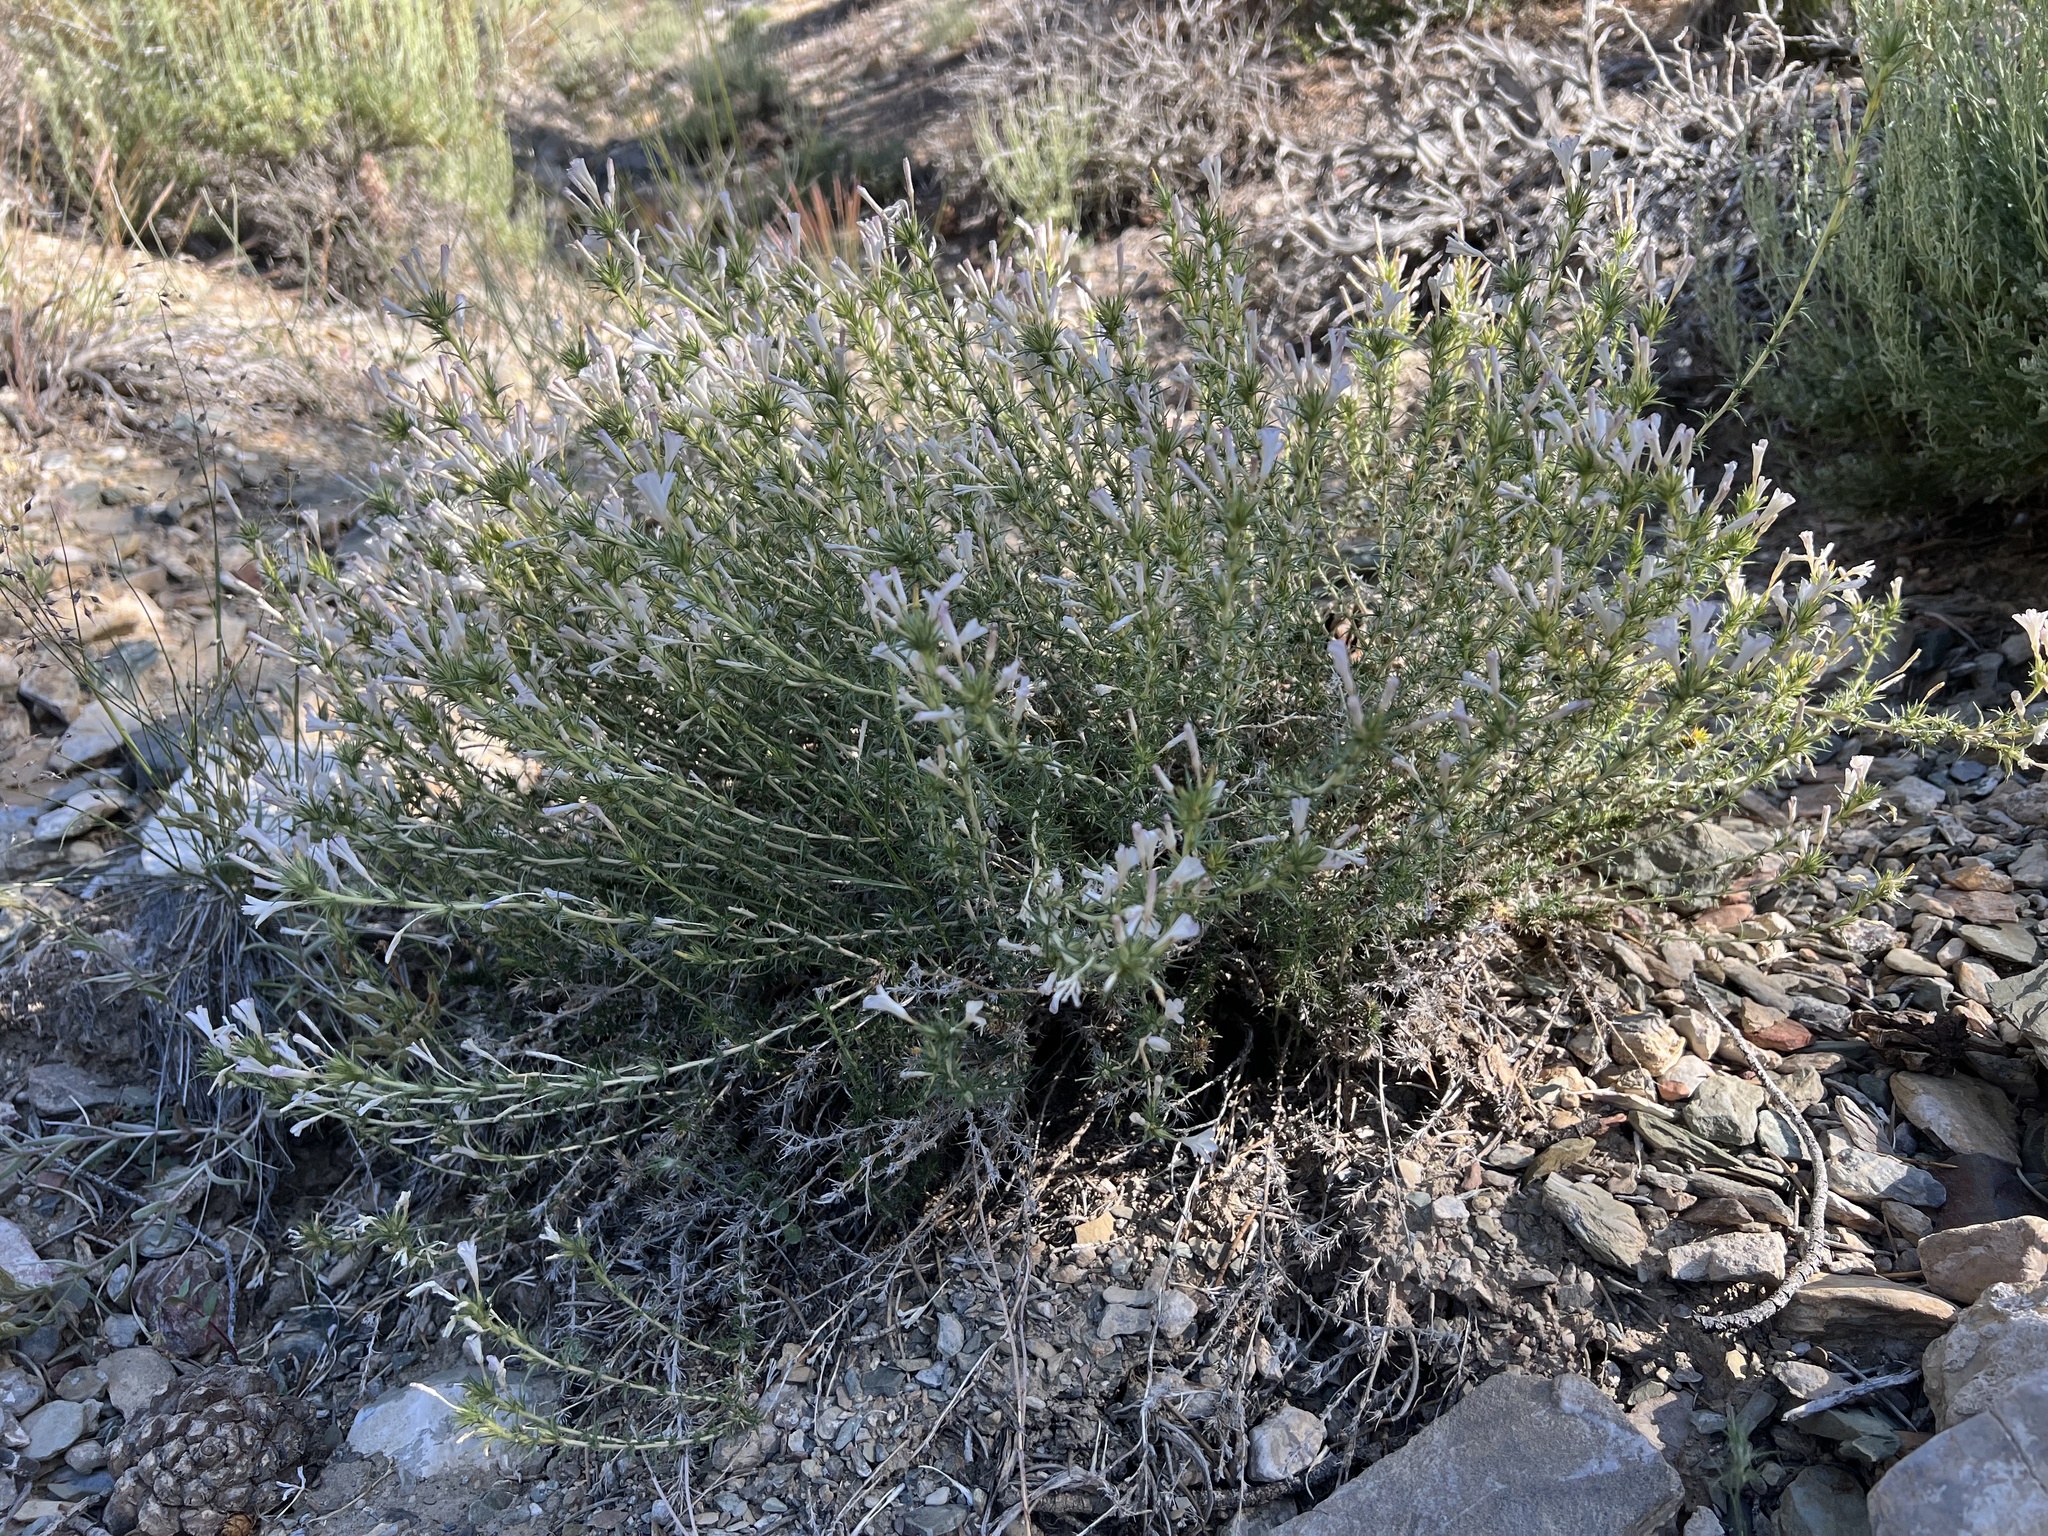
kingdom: Plantae
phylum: Tracheophyta
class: Magnoliopsida
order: Ericales
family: Polemoniaceae
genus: Linanthus
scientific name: Linanthus pungens
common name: Granite prickly phlox
